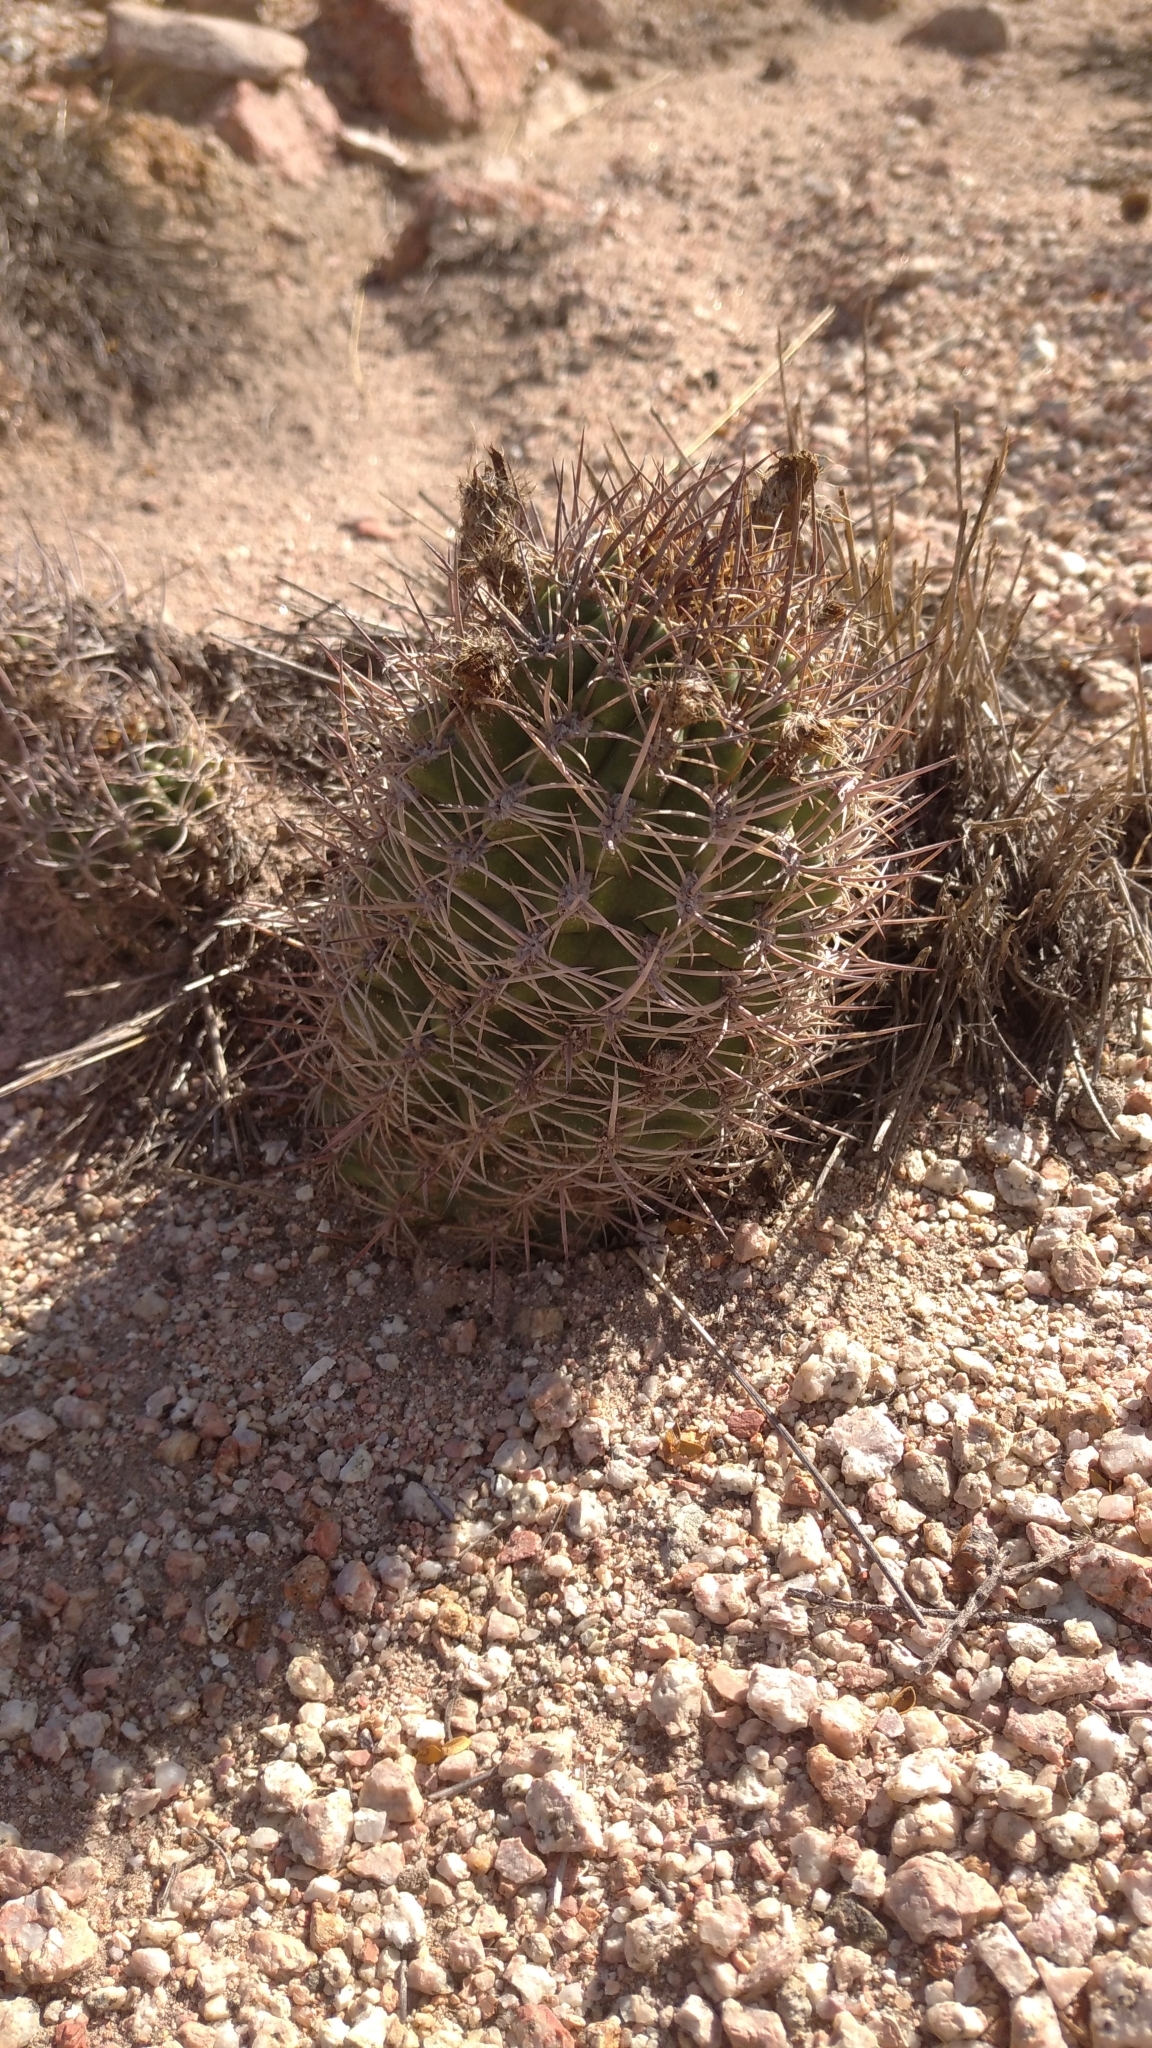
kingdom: Plantae
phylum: Tracheophyta
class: Magnoliopsida
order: Caryophyllales
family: Cactaceae
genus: Eriosyce
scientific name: Eriosyce strausiana
